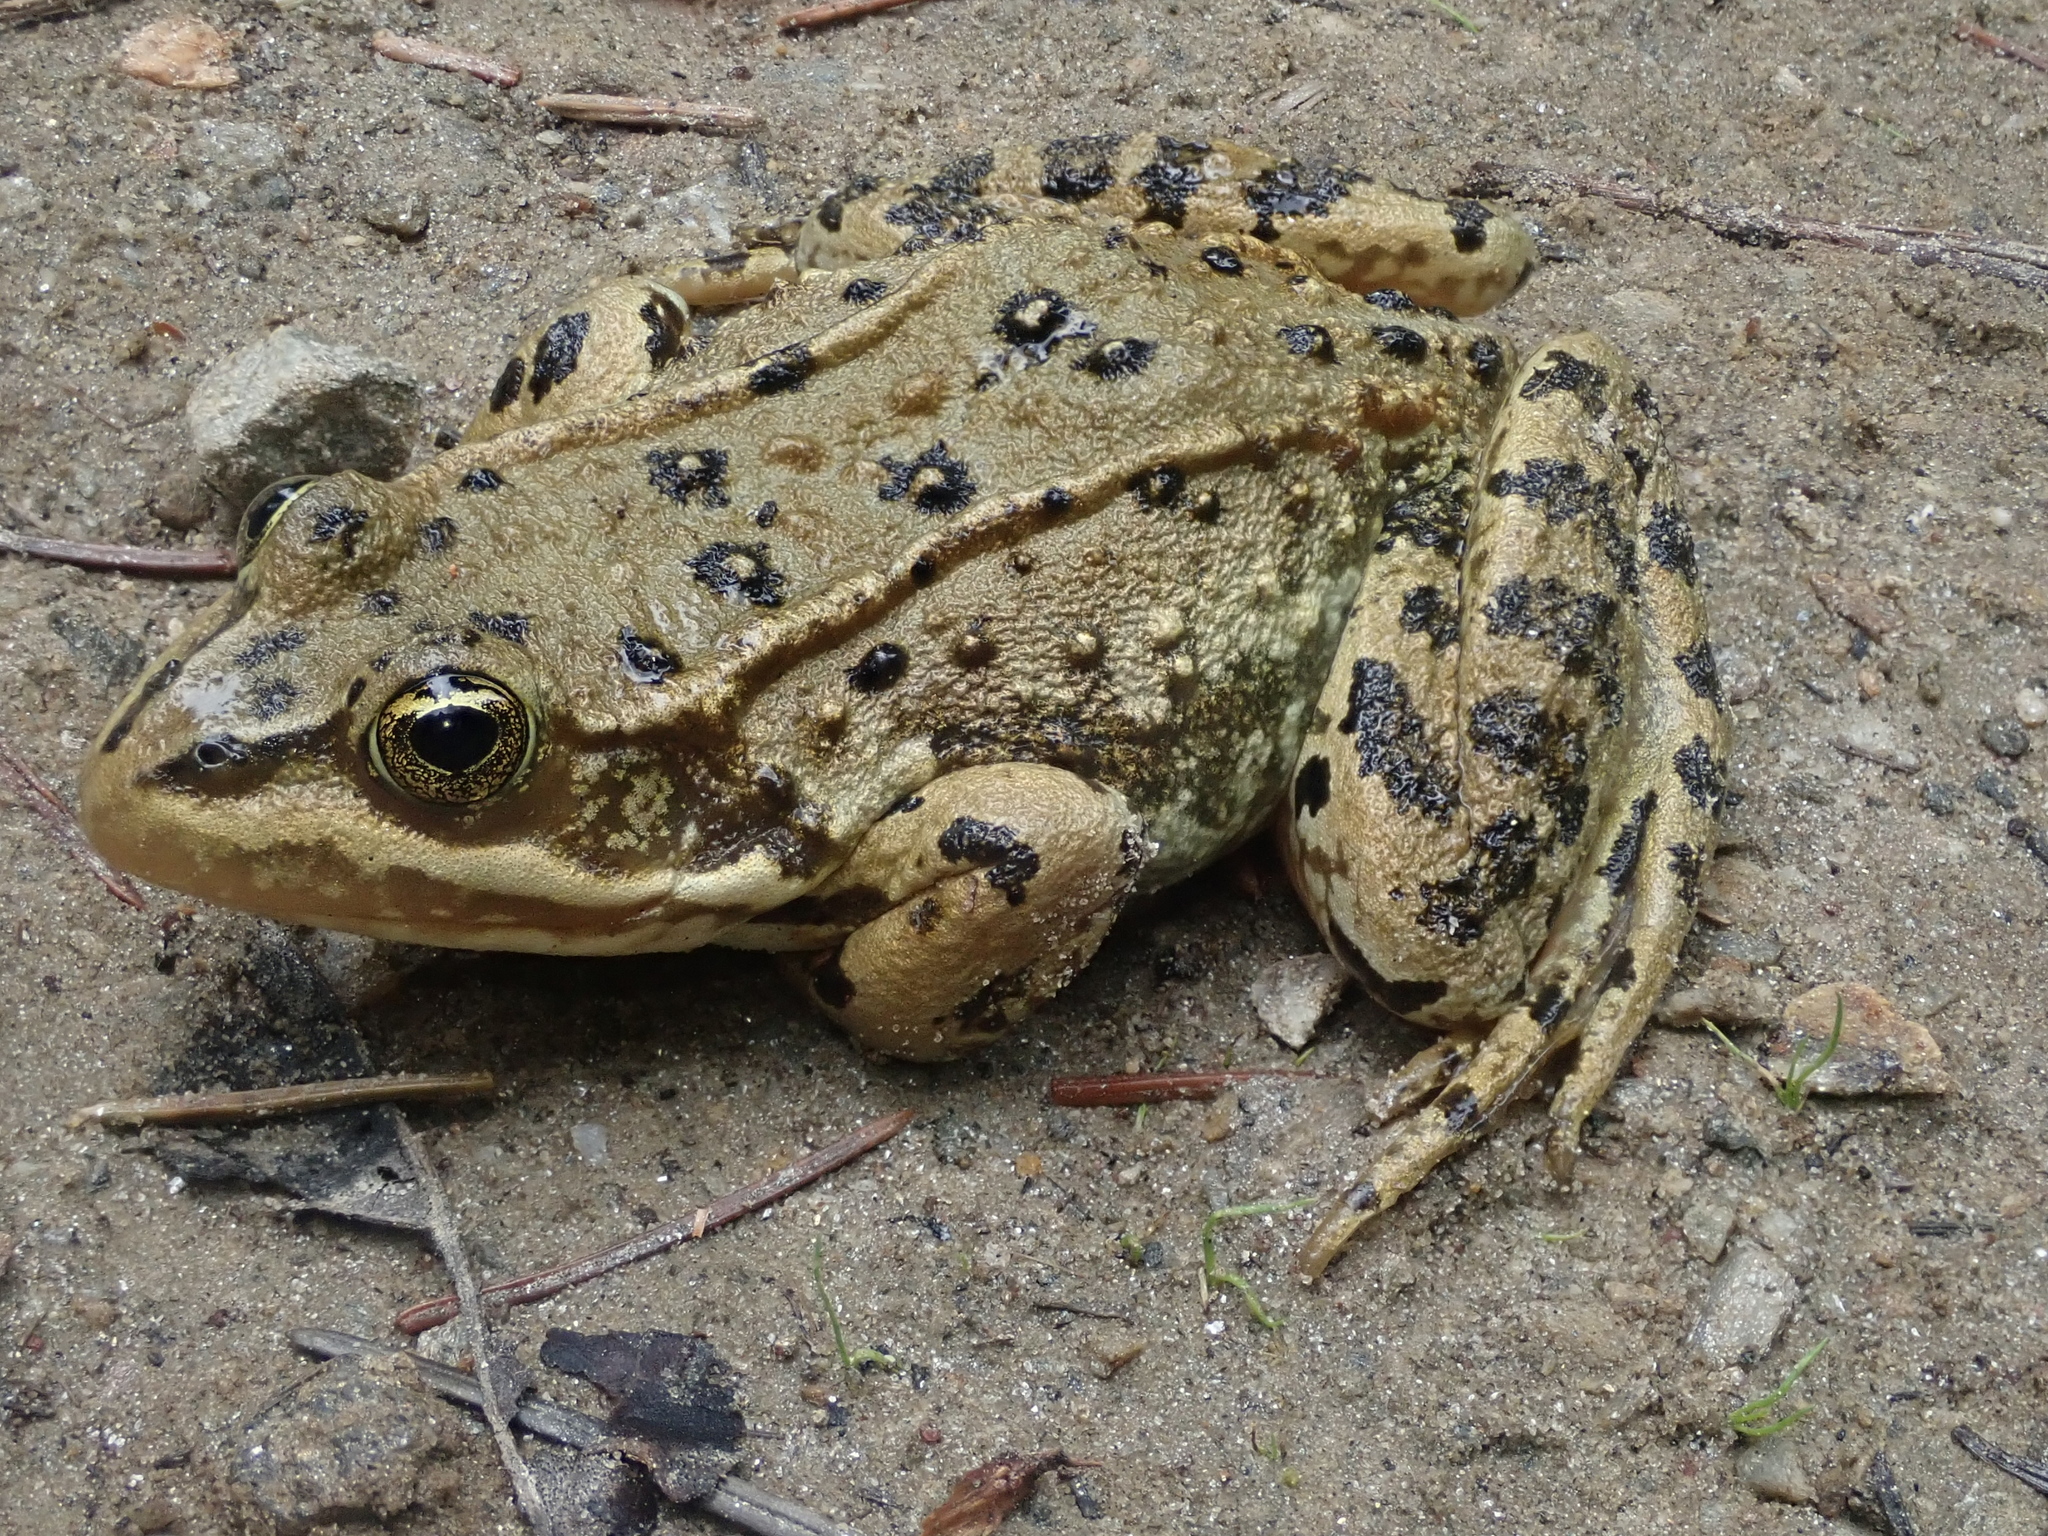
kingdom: Animalia
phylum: Chordata
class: Amphibia
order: Anura
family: Ranidae
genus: Rana
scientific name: Rana luteiventris
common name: Columbia spotted frog
